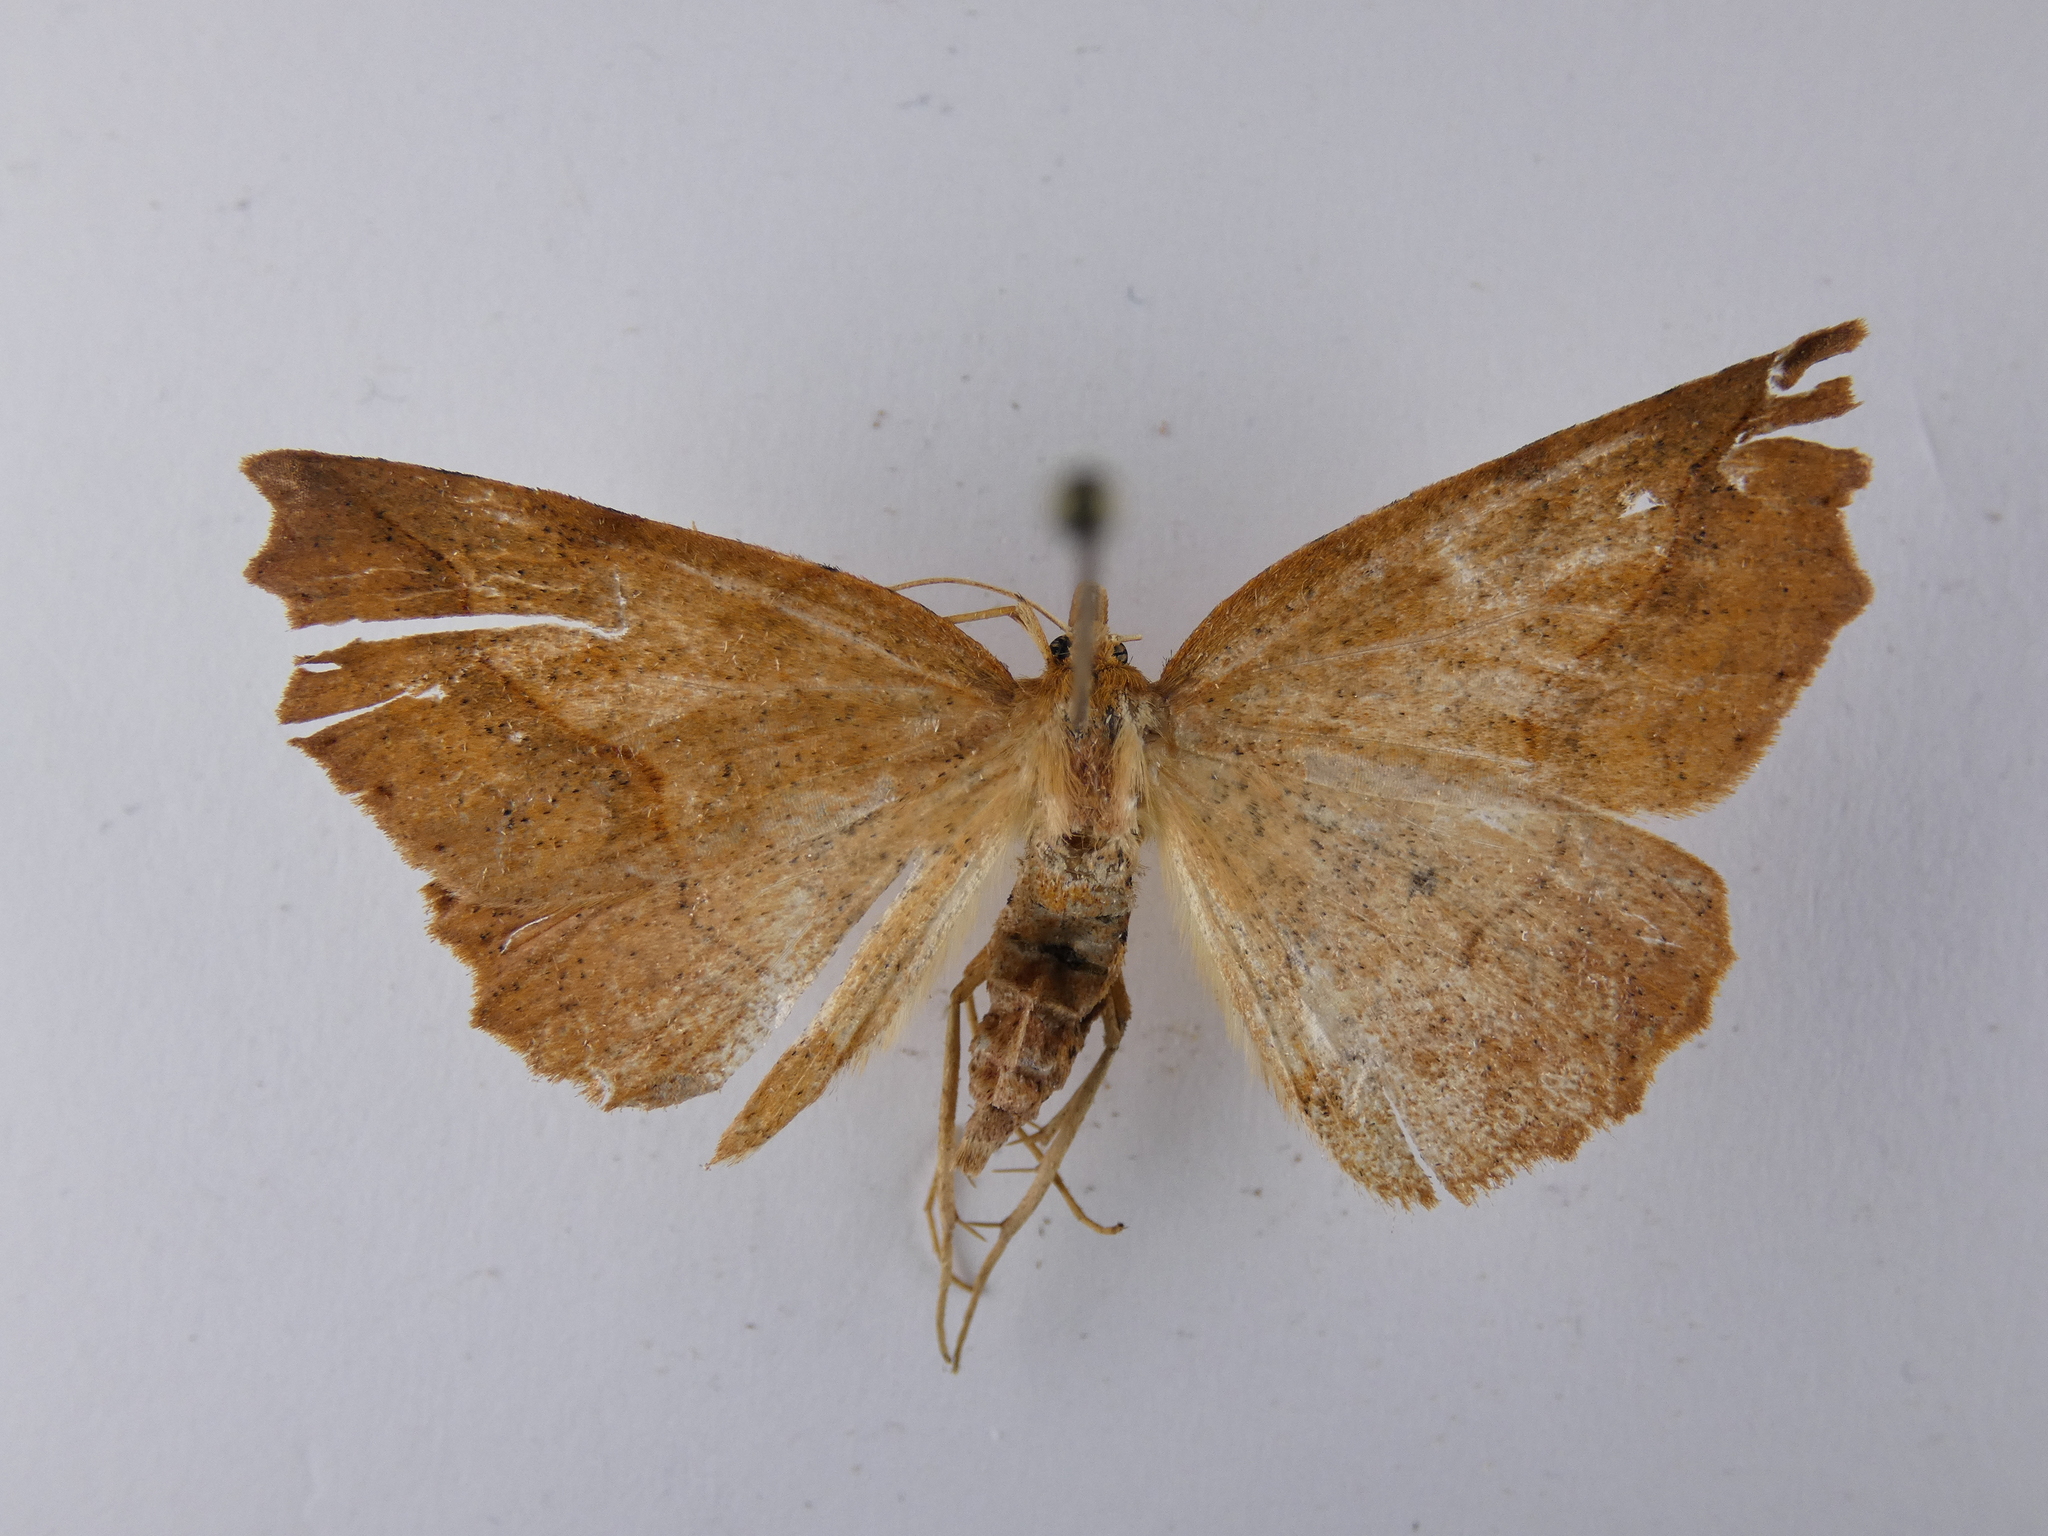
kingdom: Animalia
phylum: Arthropoda
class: Insecta
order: Lepidoptera
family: Geometridae
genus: Ischalis
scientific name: Ischalis variabilis
